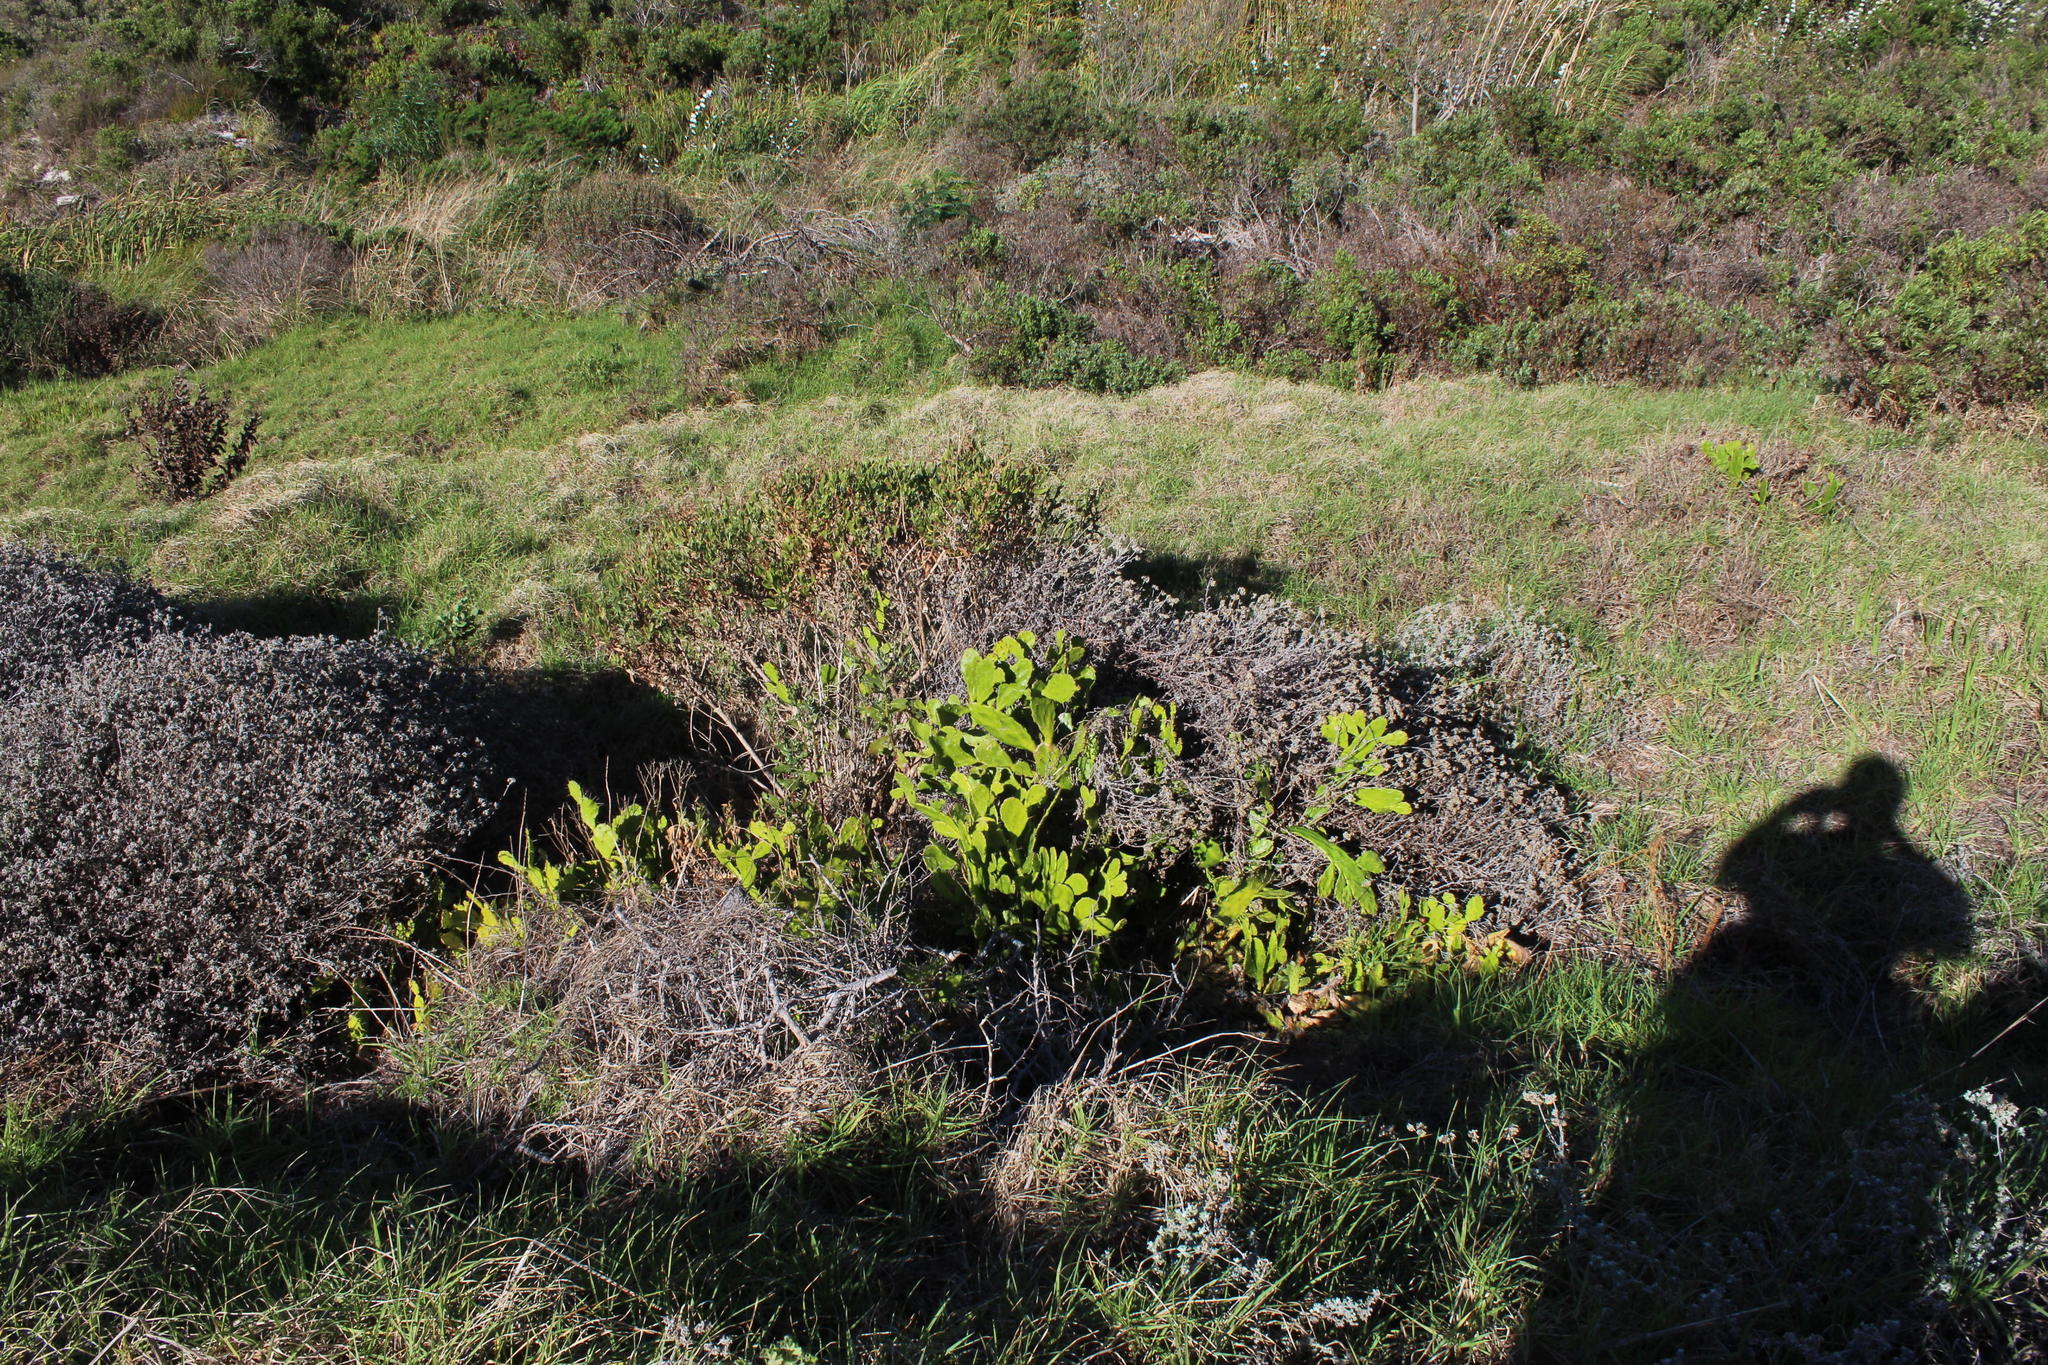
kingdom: Plantae
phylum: Tracheophyta
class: Magnoliopsida
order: Caryophyllales
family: Cactaceae
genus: Opuntia
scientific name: Opuntia monacantha
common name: Common pricklypear
